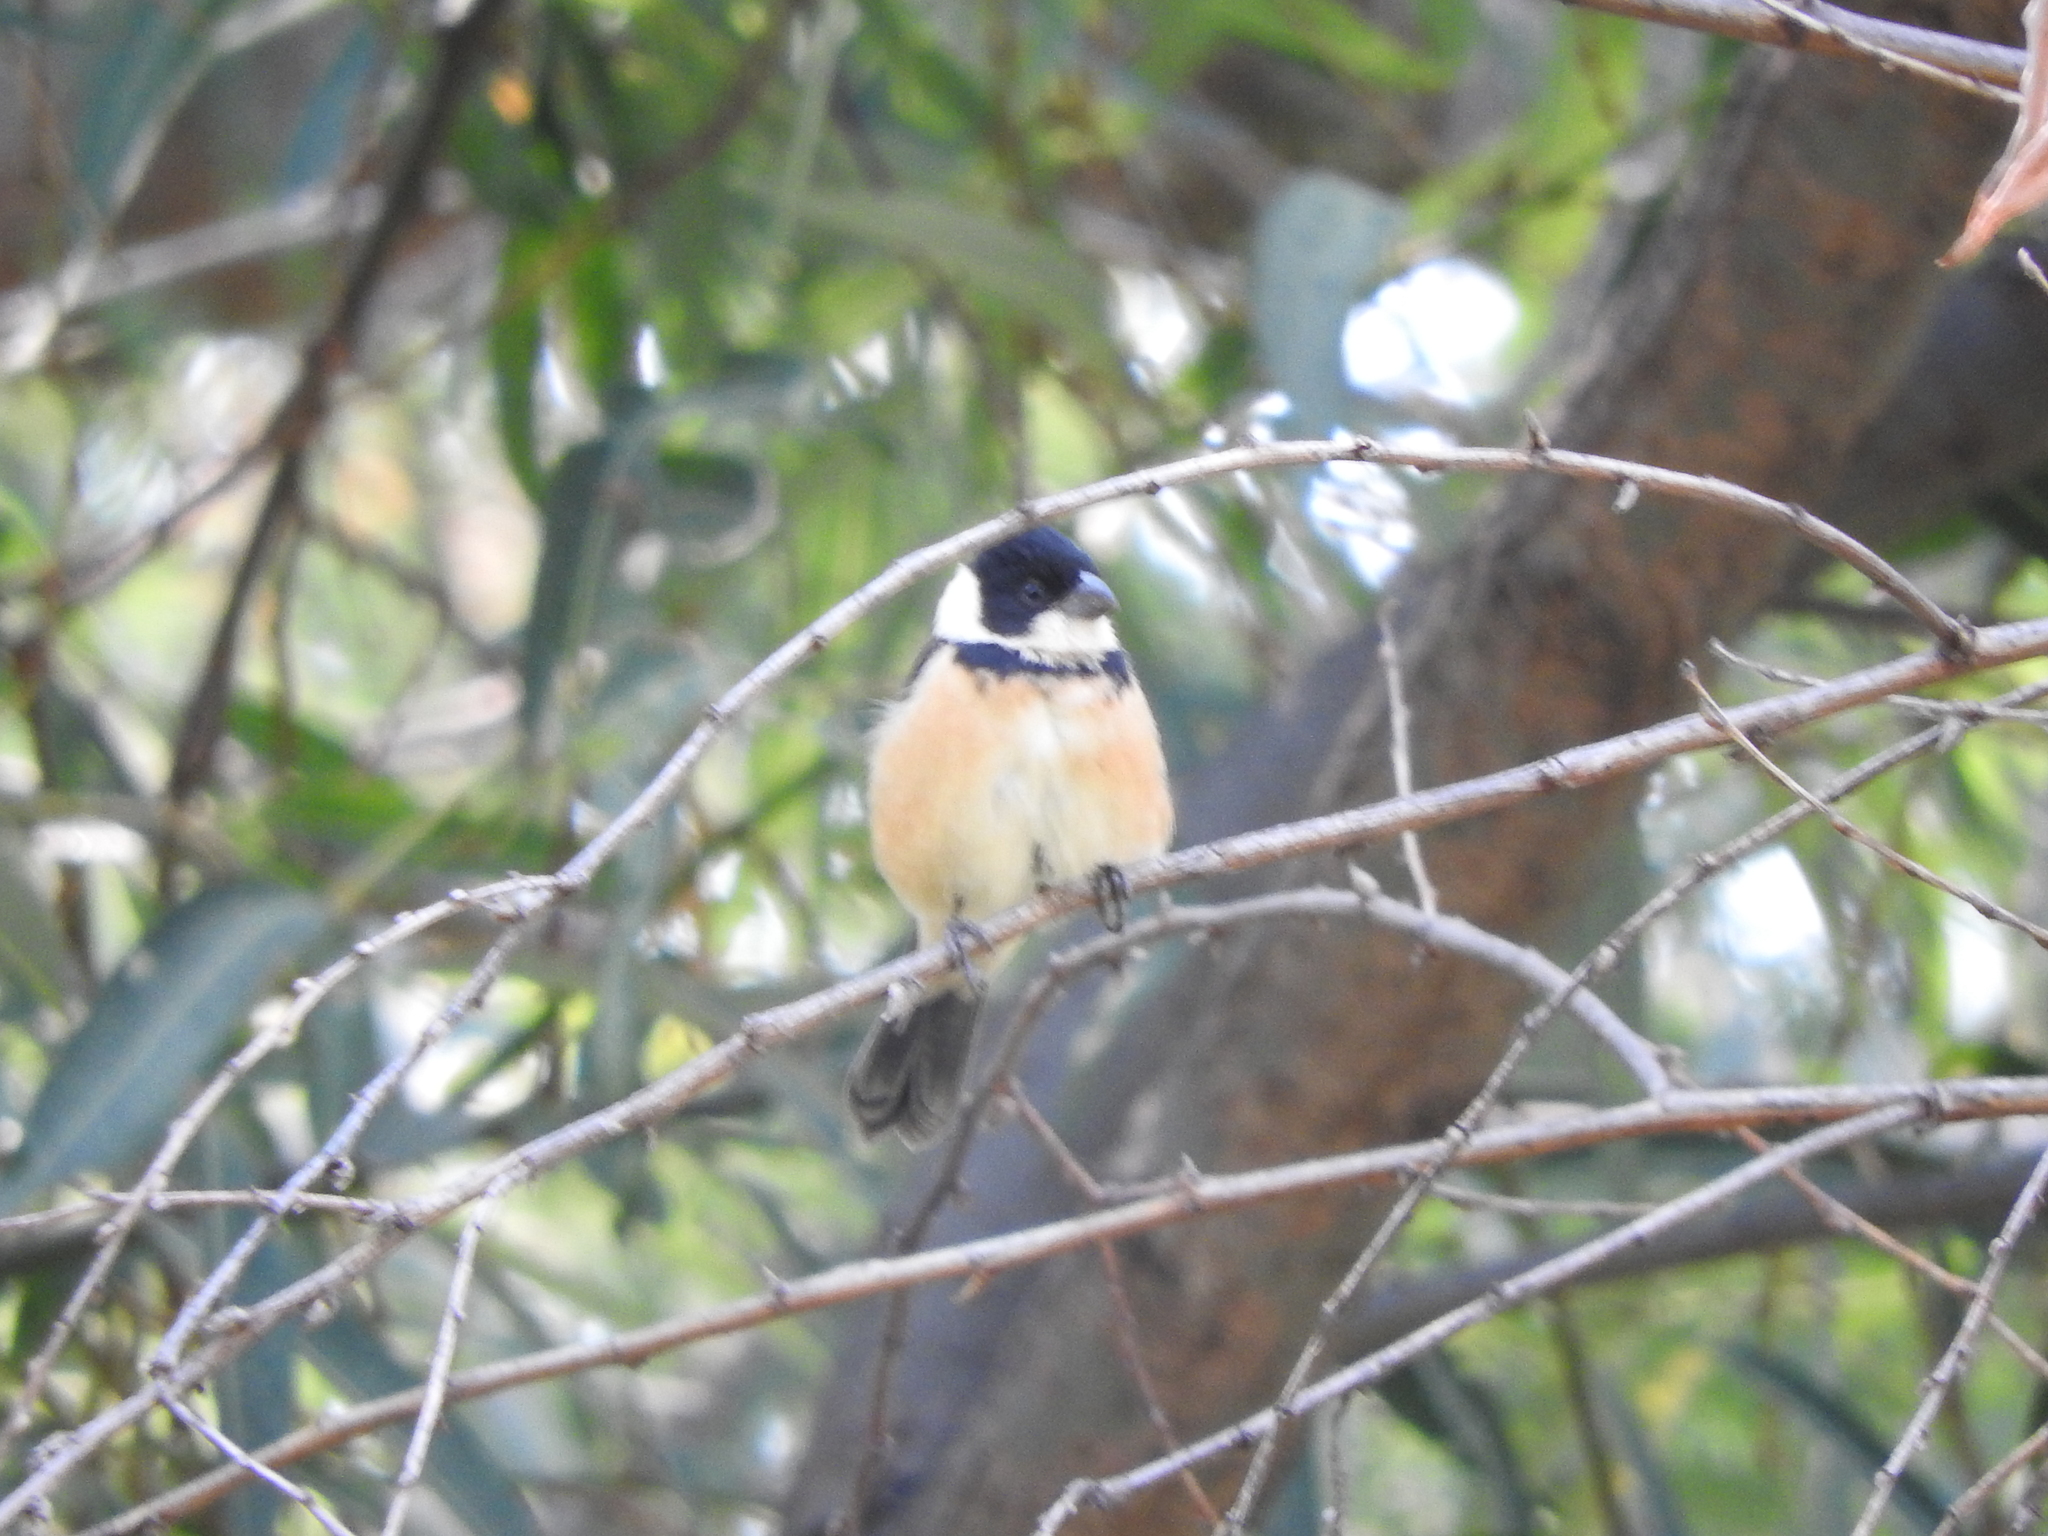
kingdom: Animalia
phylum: Chordata
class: Aves
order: Passeriformes
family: Thraupidae
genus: Sporophila
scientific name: Sporophila torqueola
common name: White-collared seedeater
